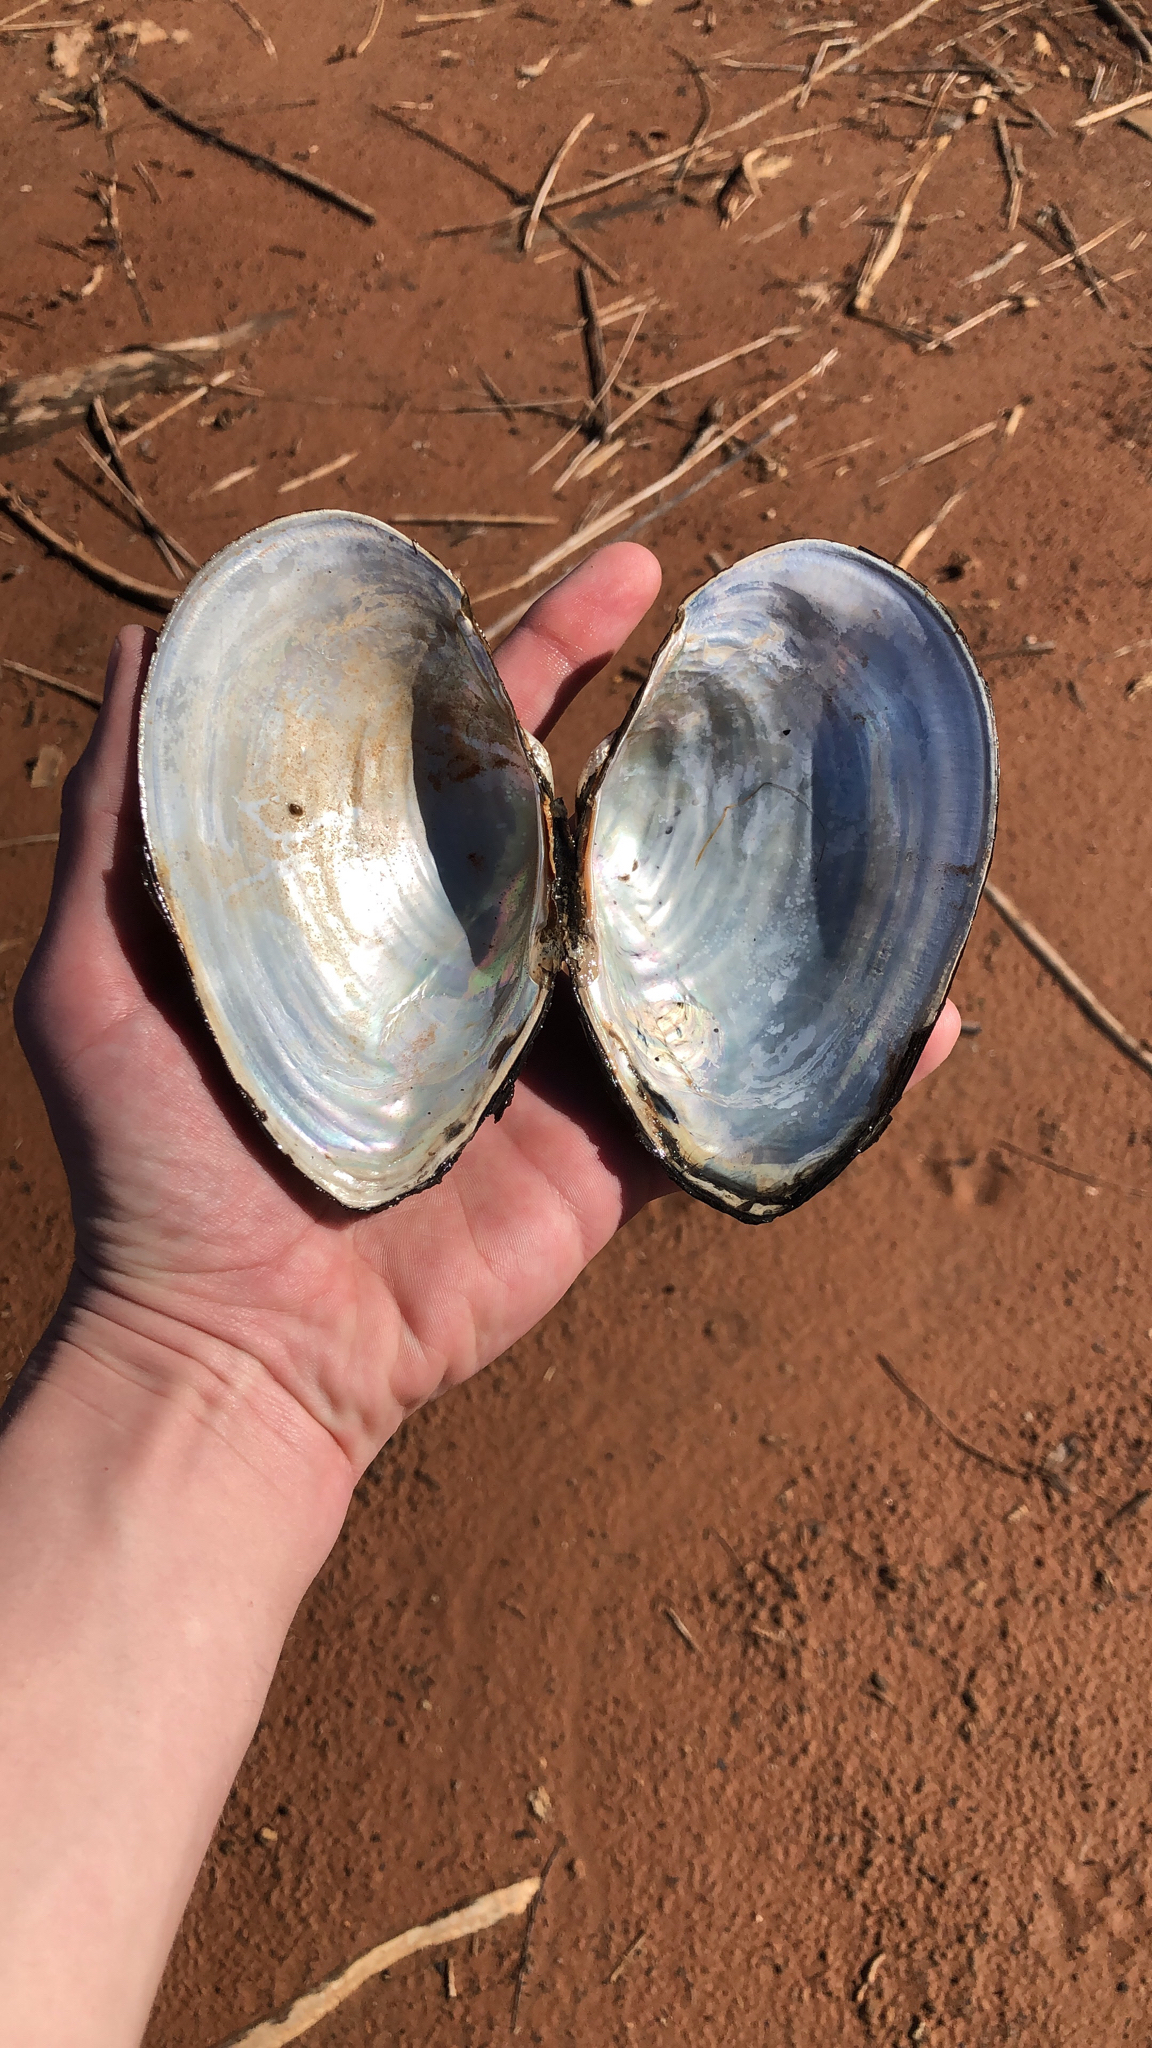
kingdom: Animalia
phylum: Mollusca
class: Bivalvia
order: Unionida
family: Unionidae
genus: Pyganodon
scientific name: Pyganodon grandis
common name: Giant floater
